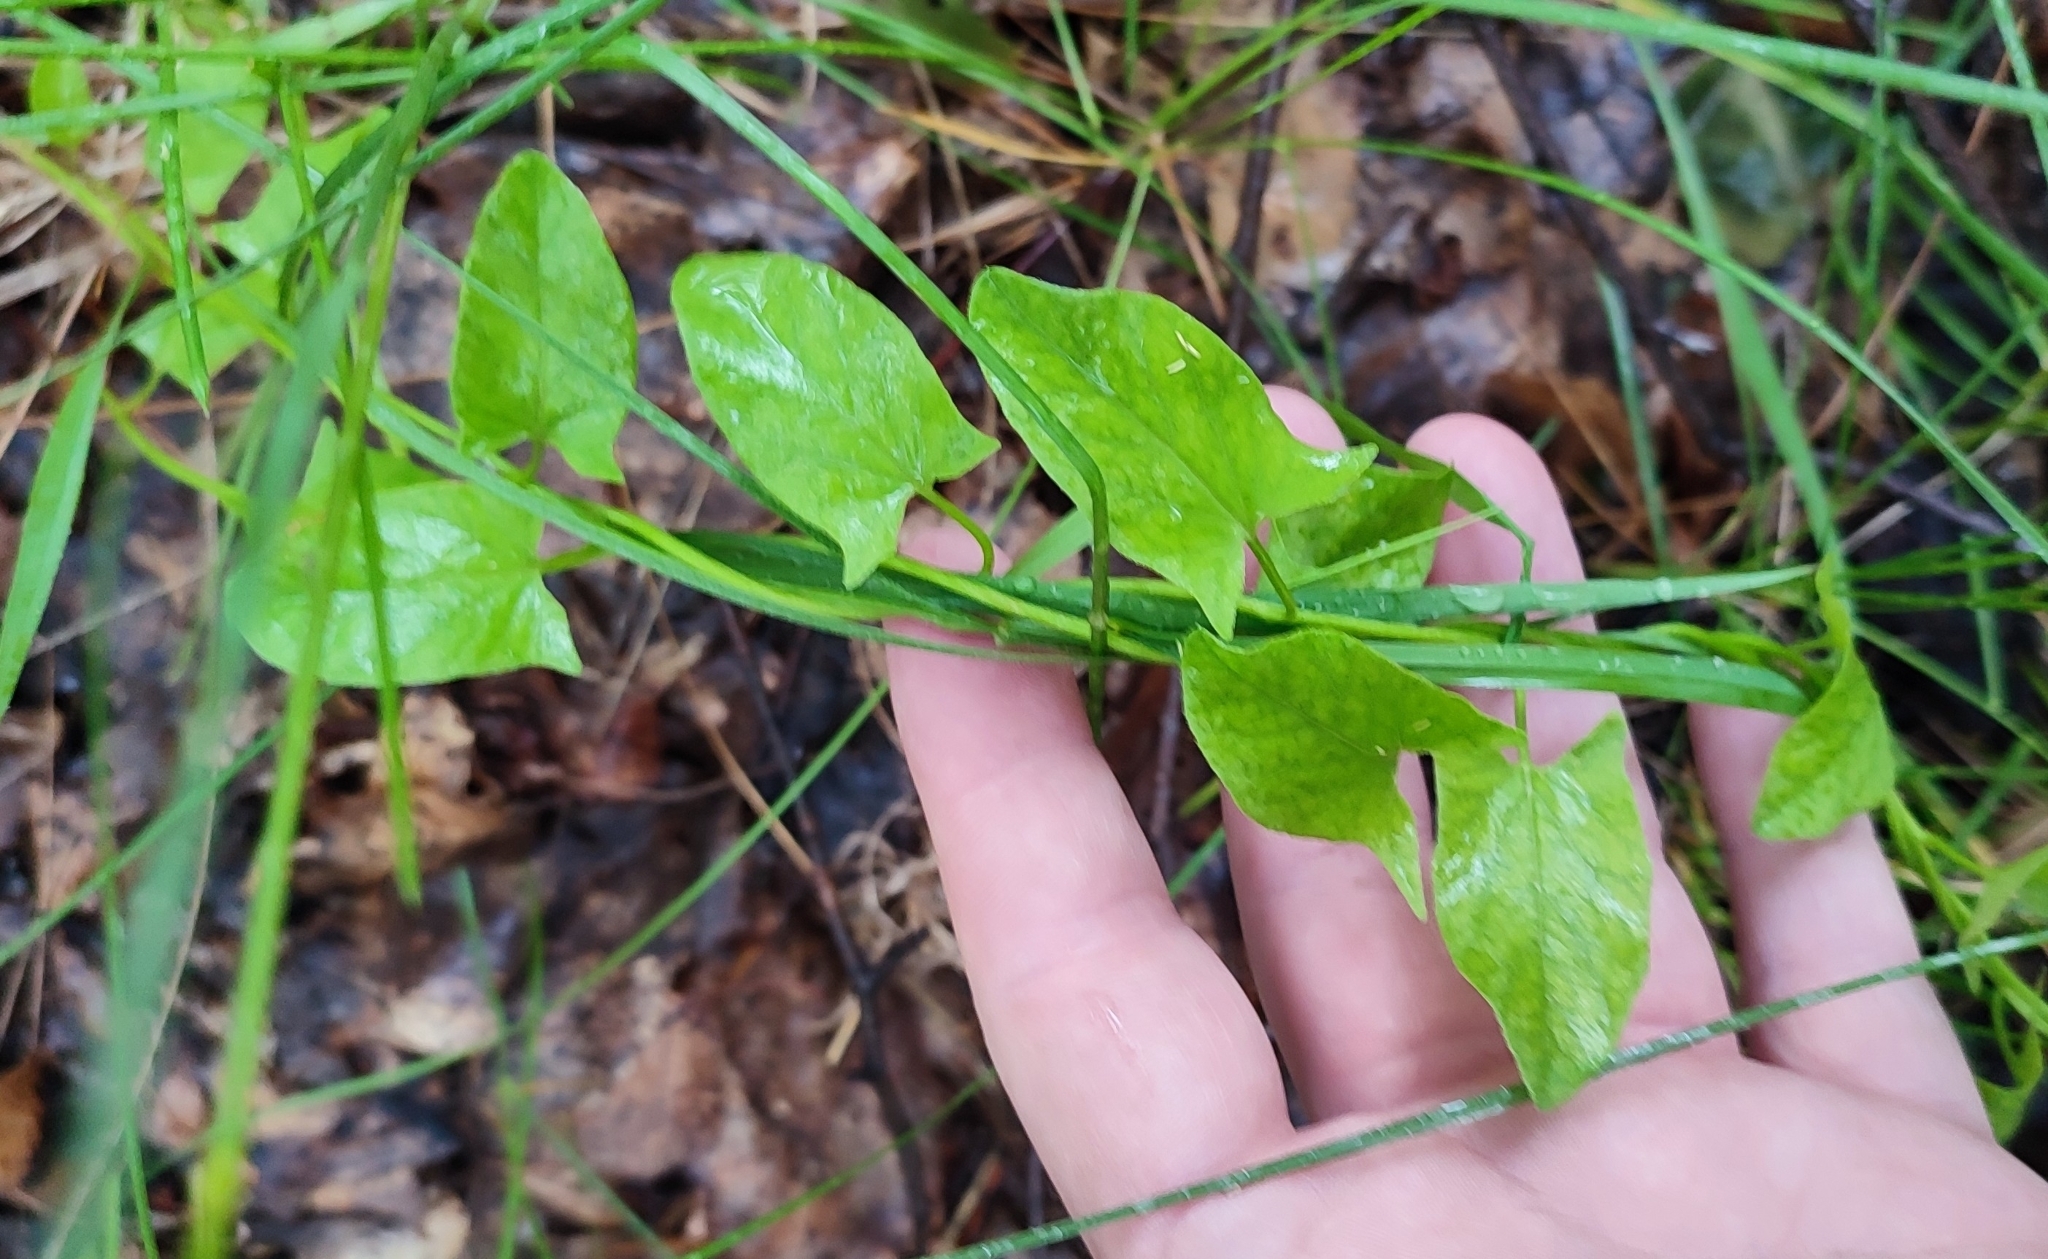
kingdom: Plantae
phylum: Tracheophyta
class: Magnoliopsida
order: Solanales
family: Convolvulaceae
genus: Convolvulus
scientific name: Convolvulus arvensis
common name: Field bindweed
